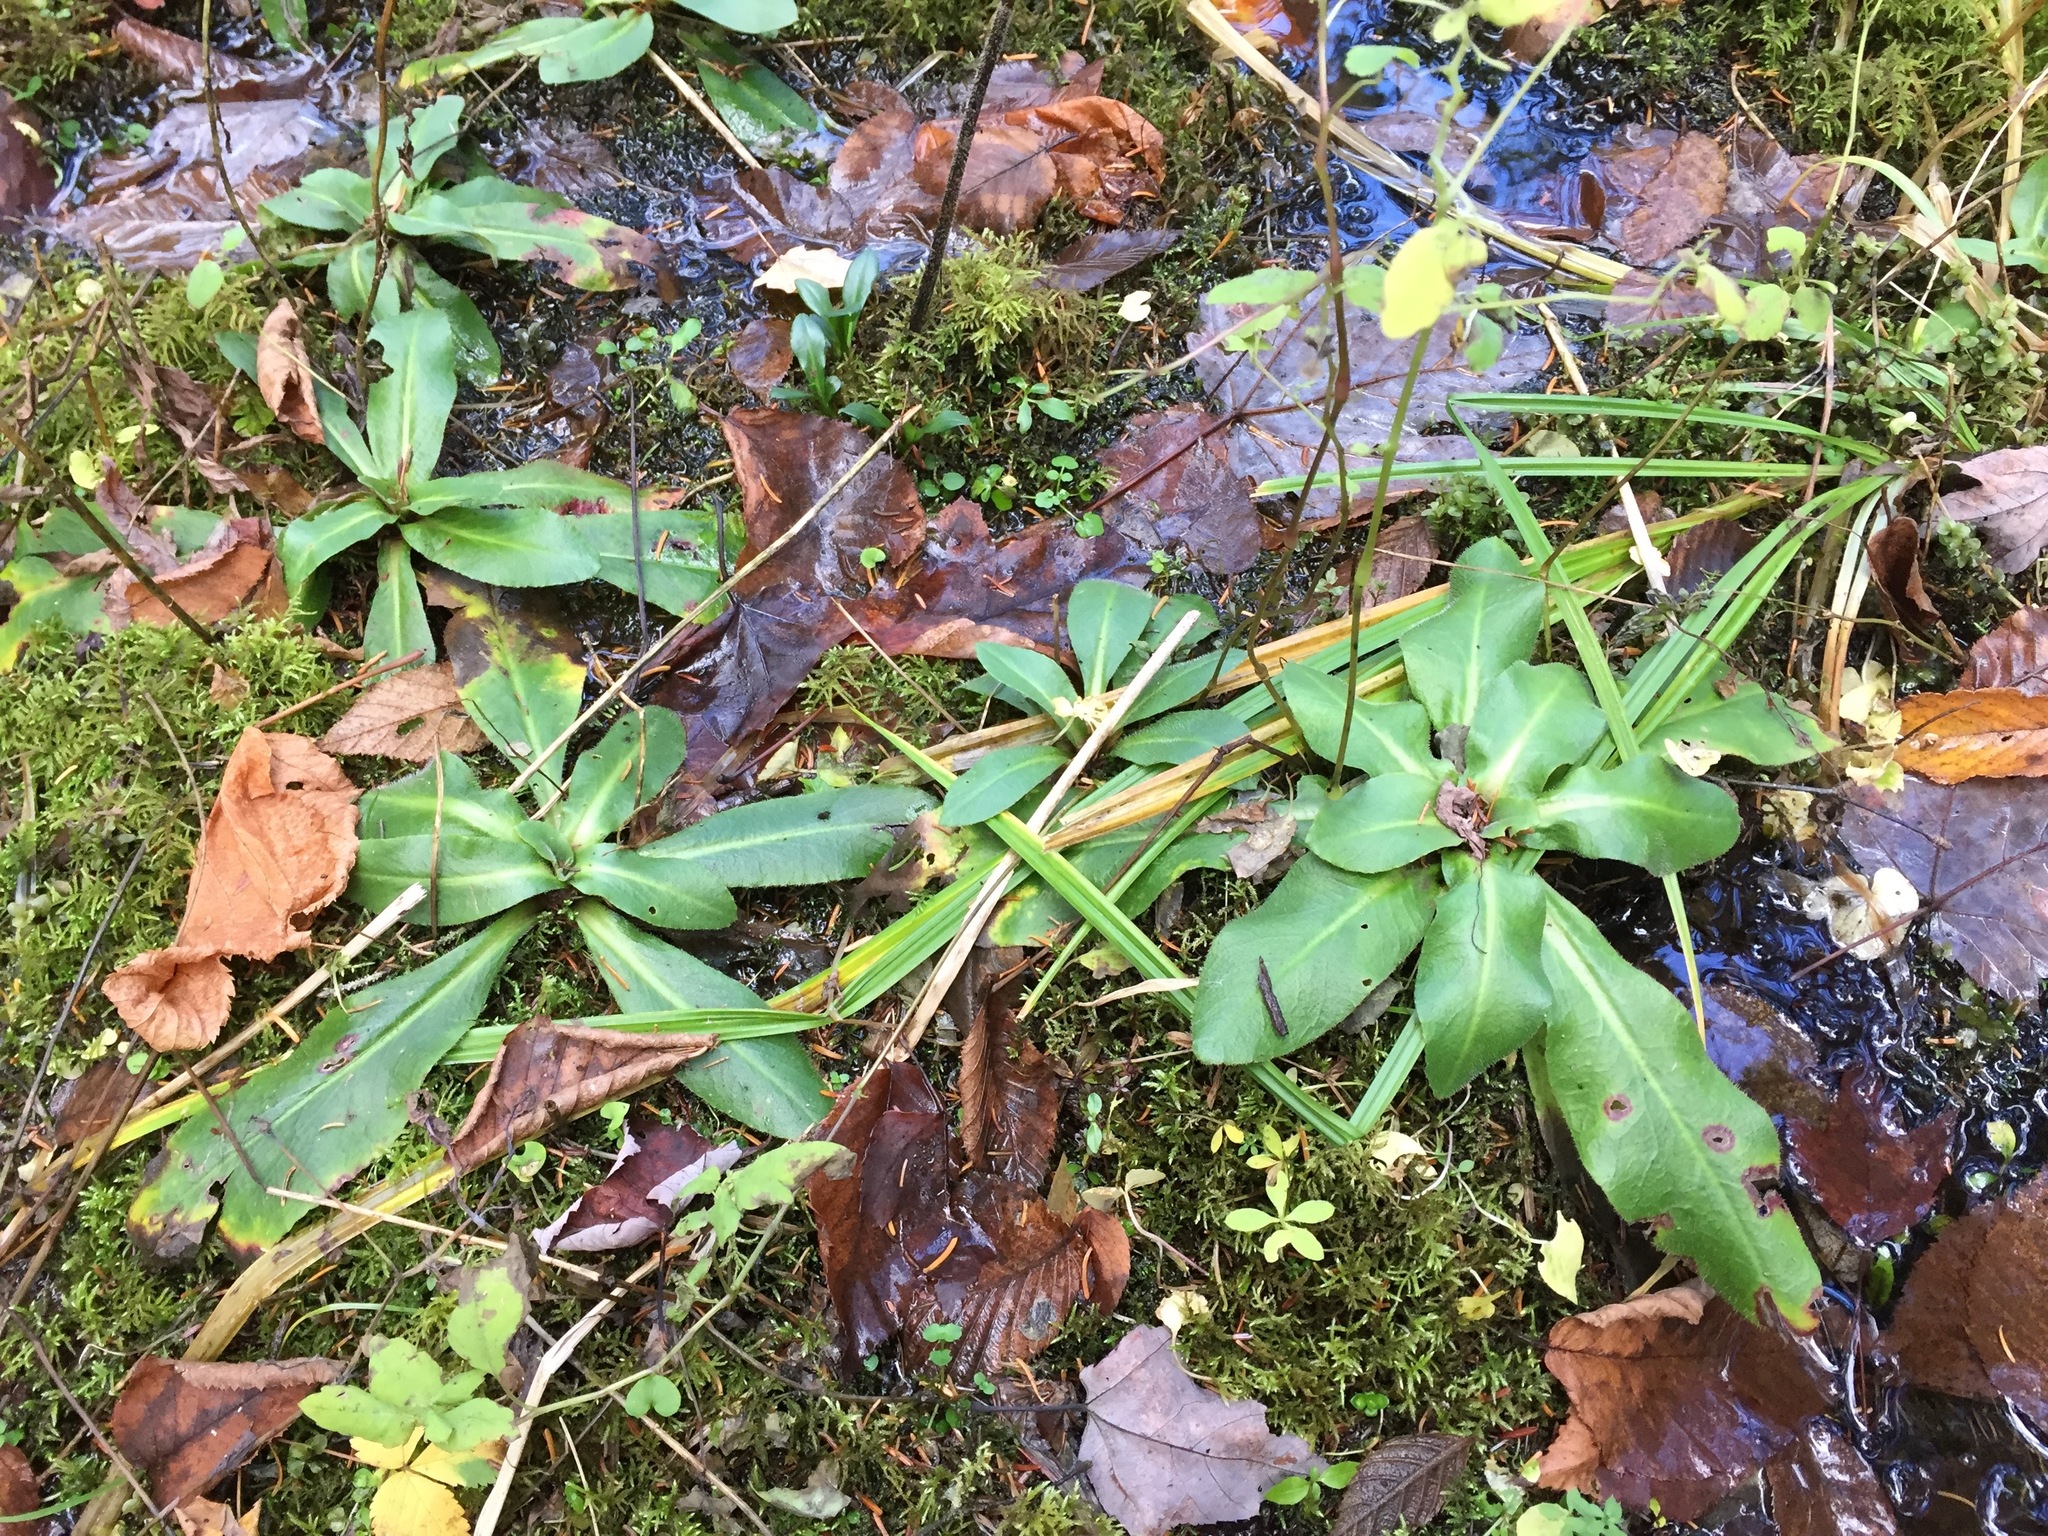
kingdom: Plantae
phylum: Tracheophyta
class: Magnoliopsida
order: Saxifragales
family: Saxifragaceae
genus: Micranthes
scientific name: Micranthes pensylvanica
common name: Marsh saxifrage
